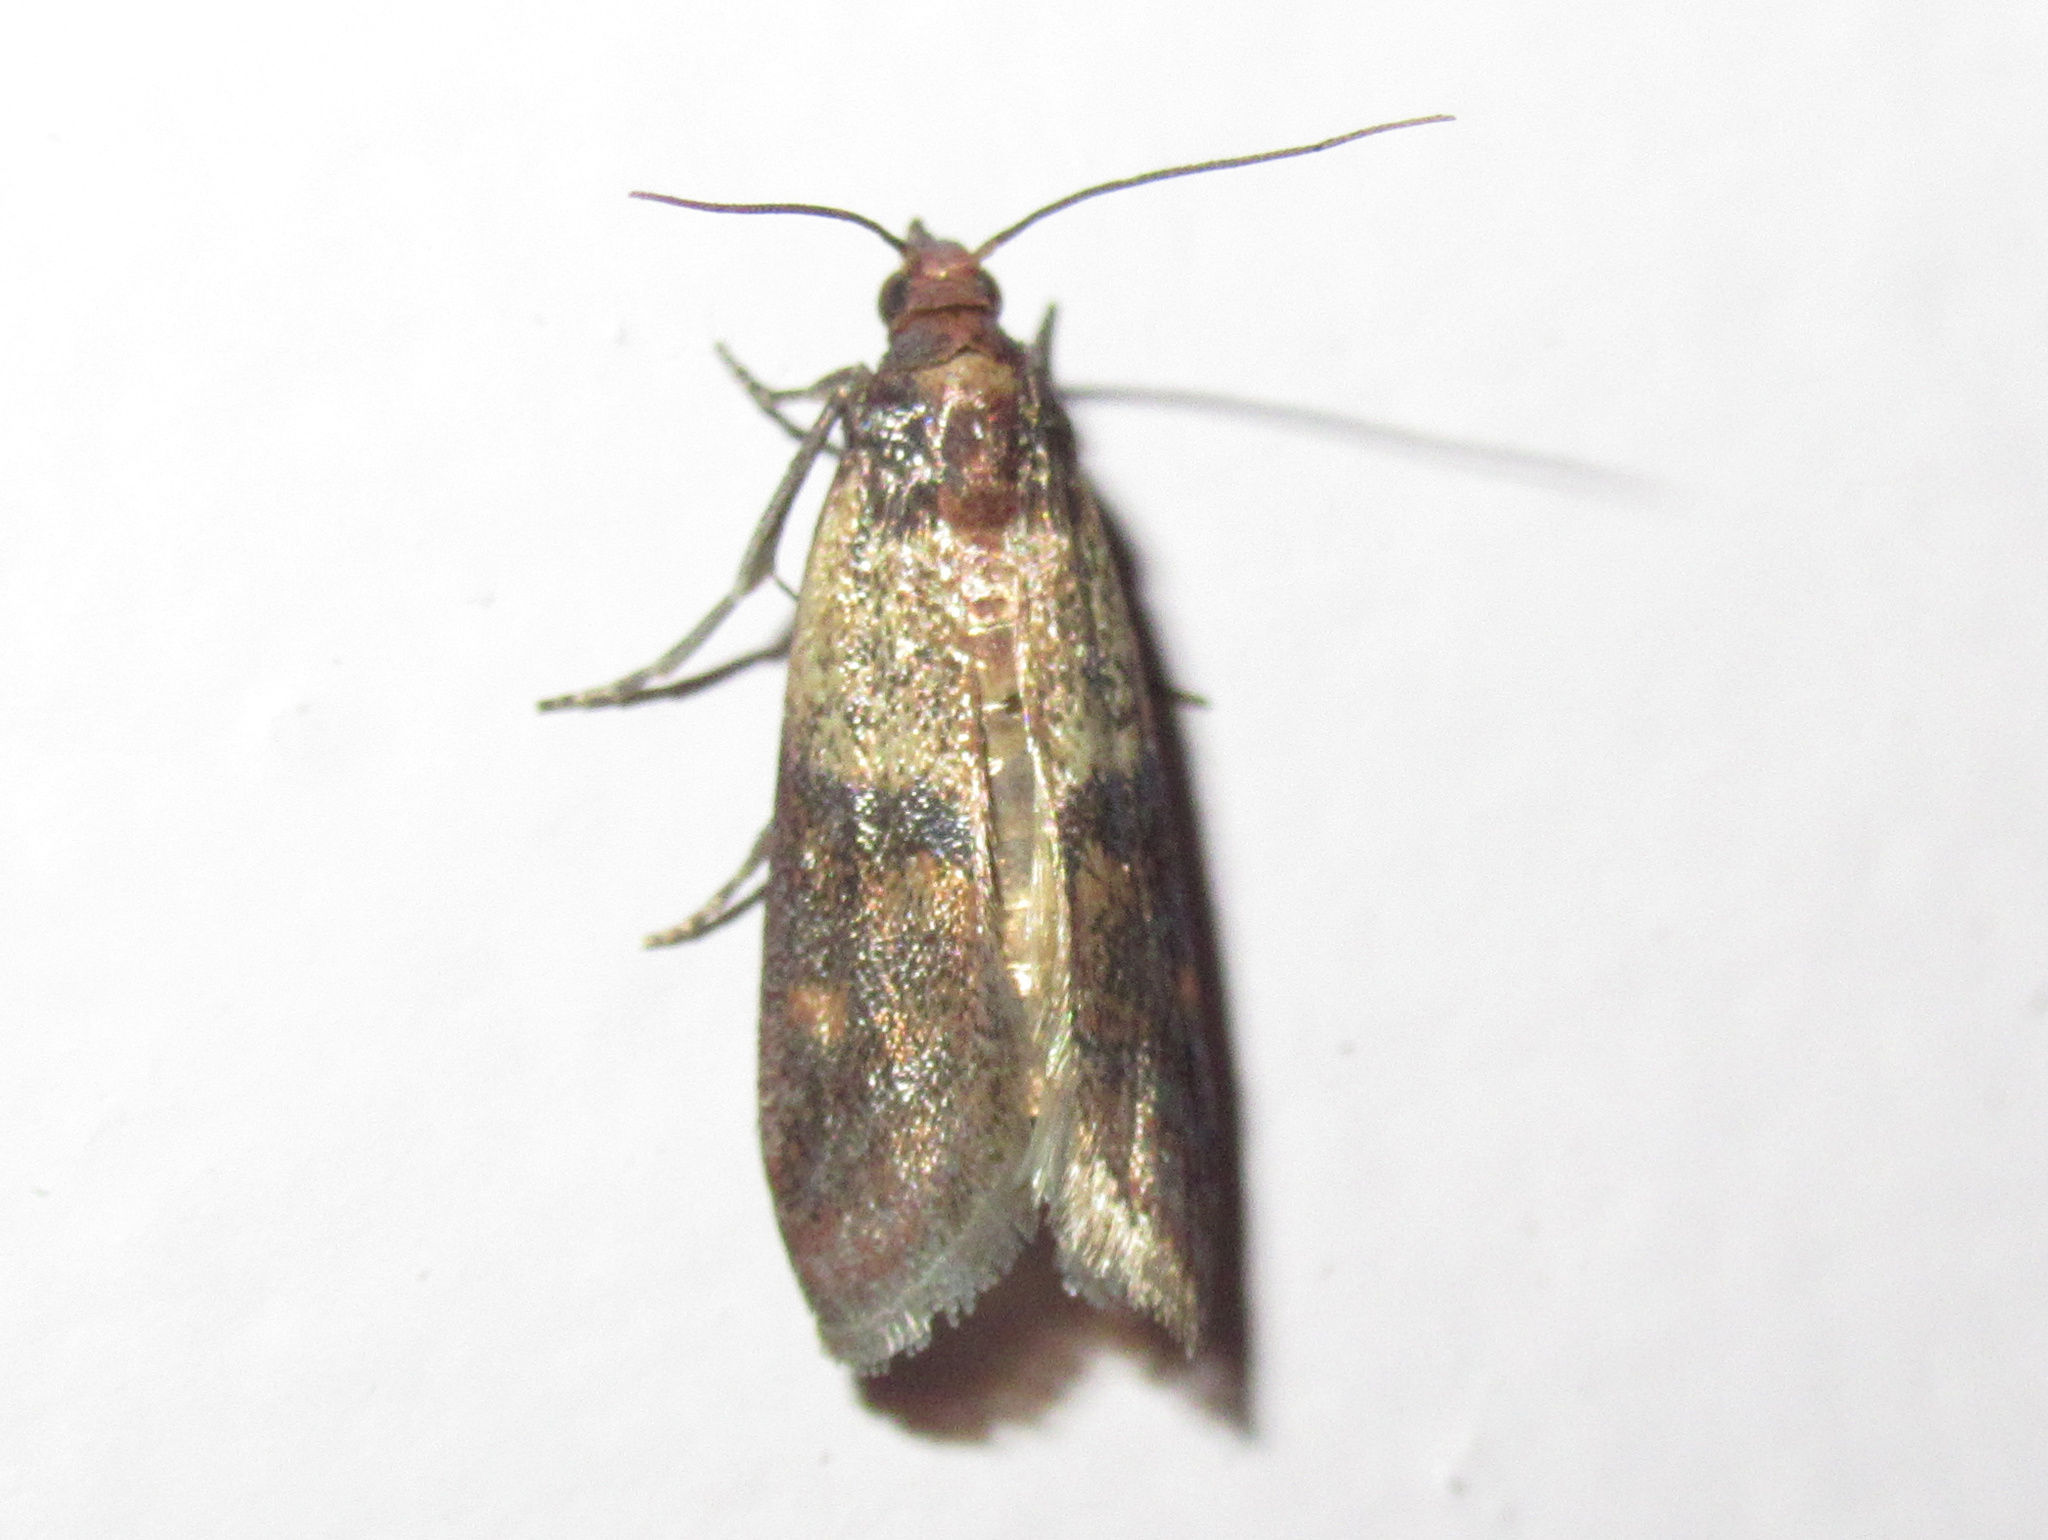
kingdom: Animalia
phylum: Arthropoda
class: Insecta
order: Lepidoptera
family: Pyralidae
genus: Plodia
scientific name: Plodia interpunctella
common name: Indian meal moth
